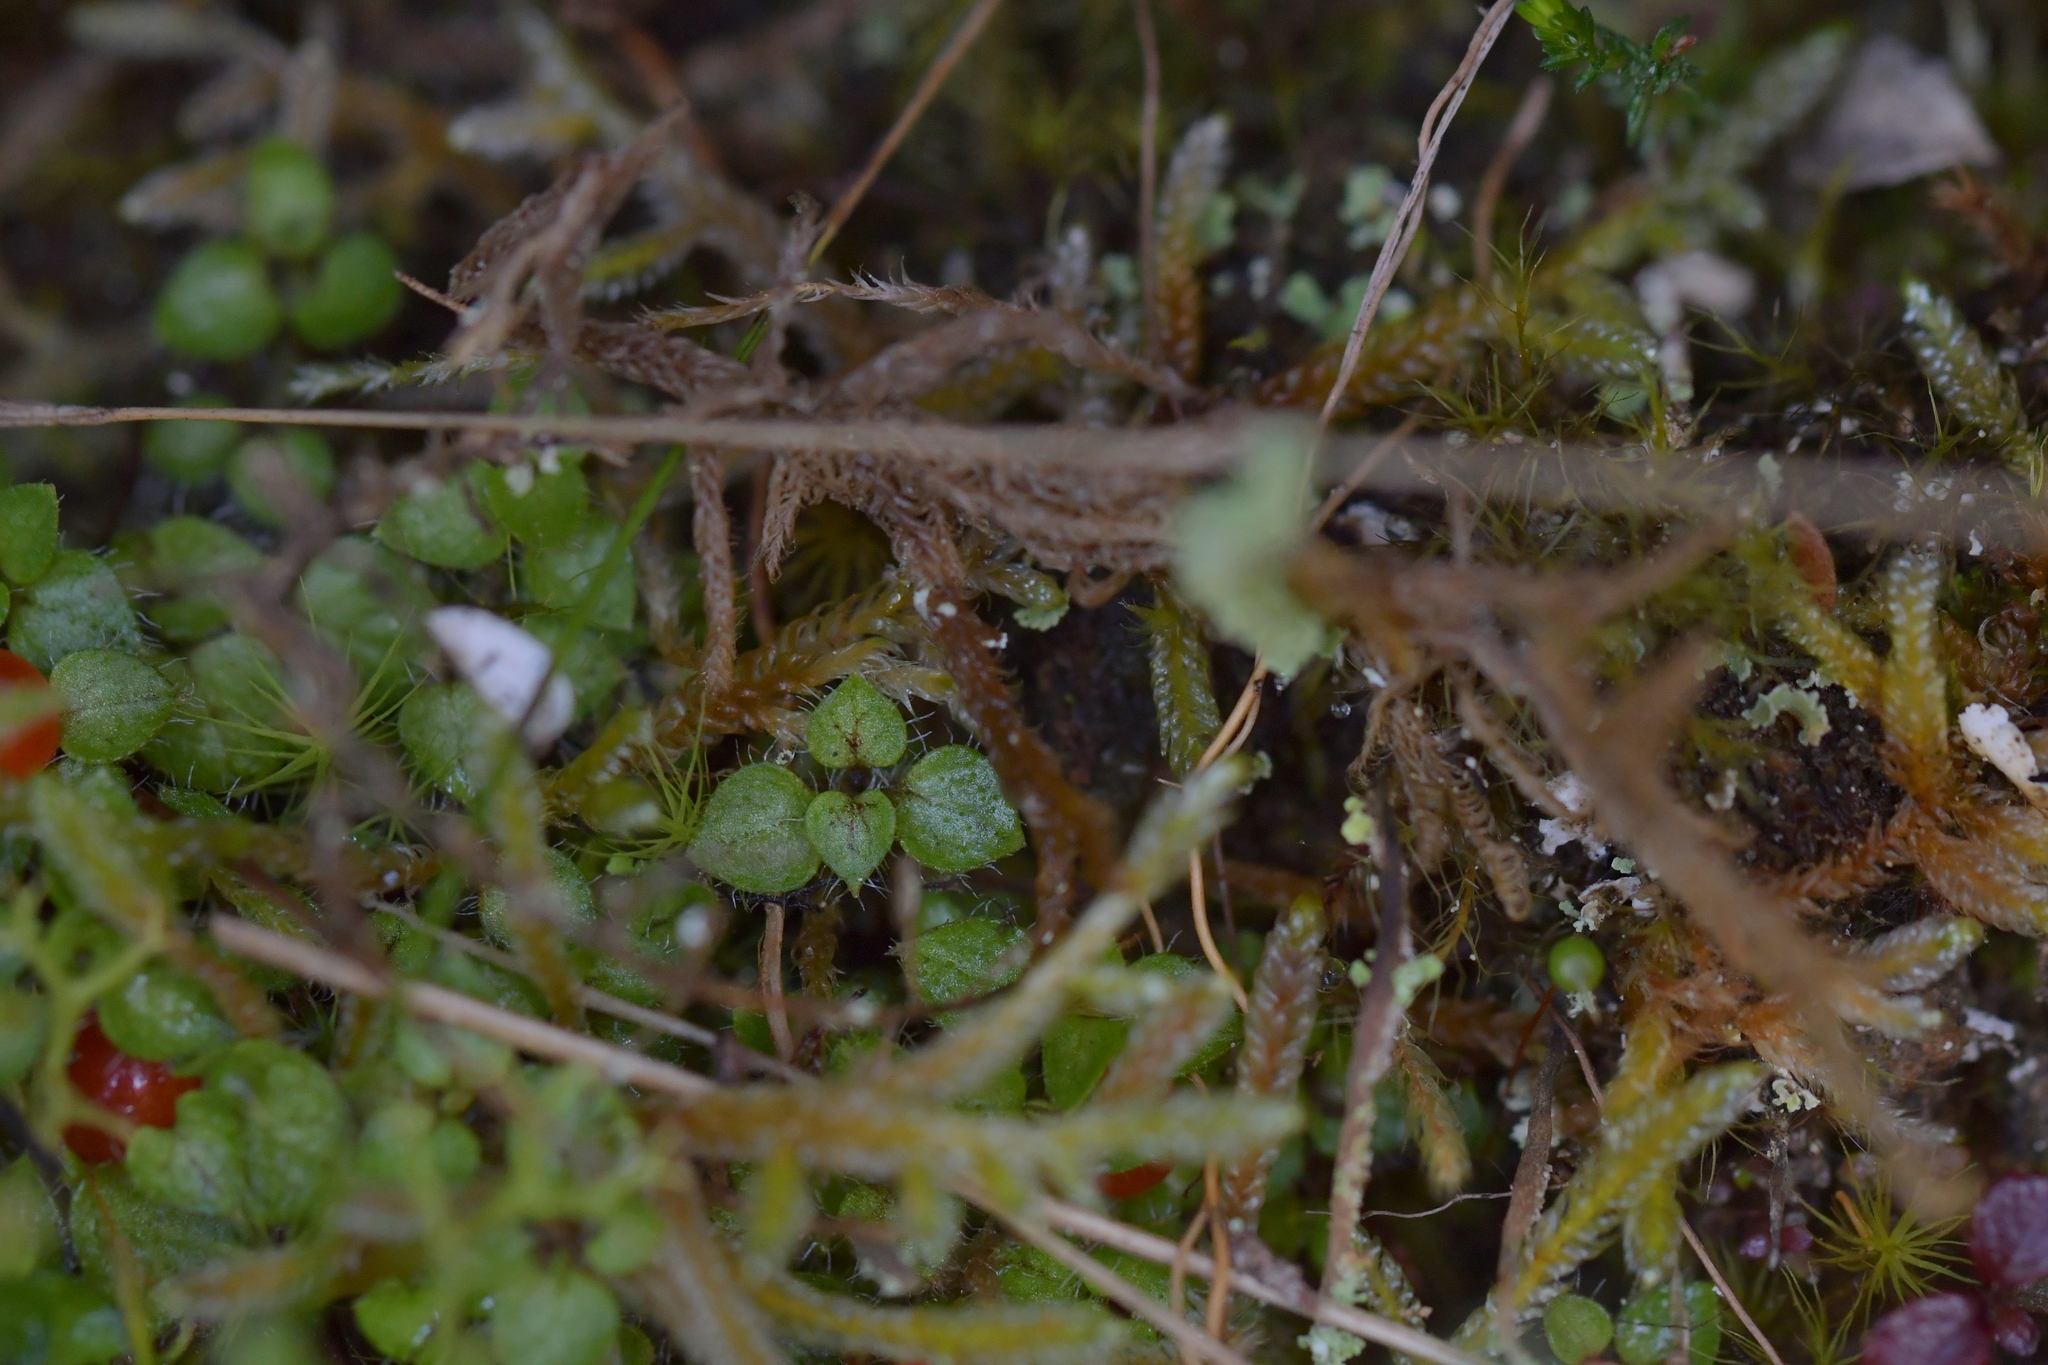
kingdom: Plantae
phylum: Tracheophyta
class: Magnoliopsida
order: Gentianales
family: Rubiaceae
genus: Nertera
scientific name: Nertera ciliata
